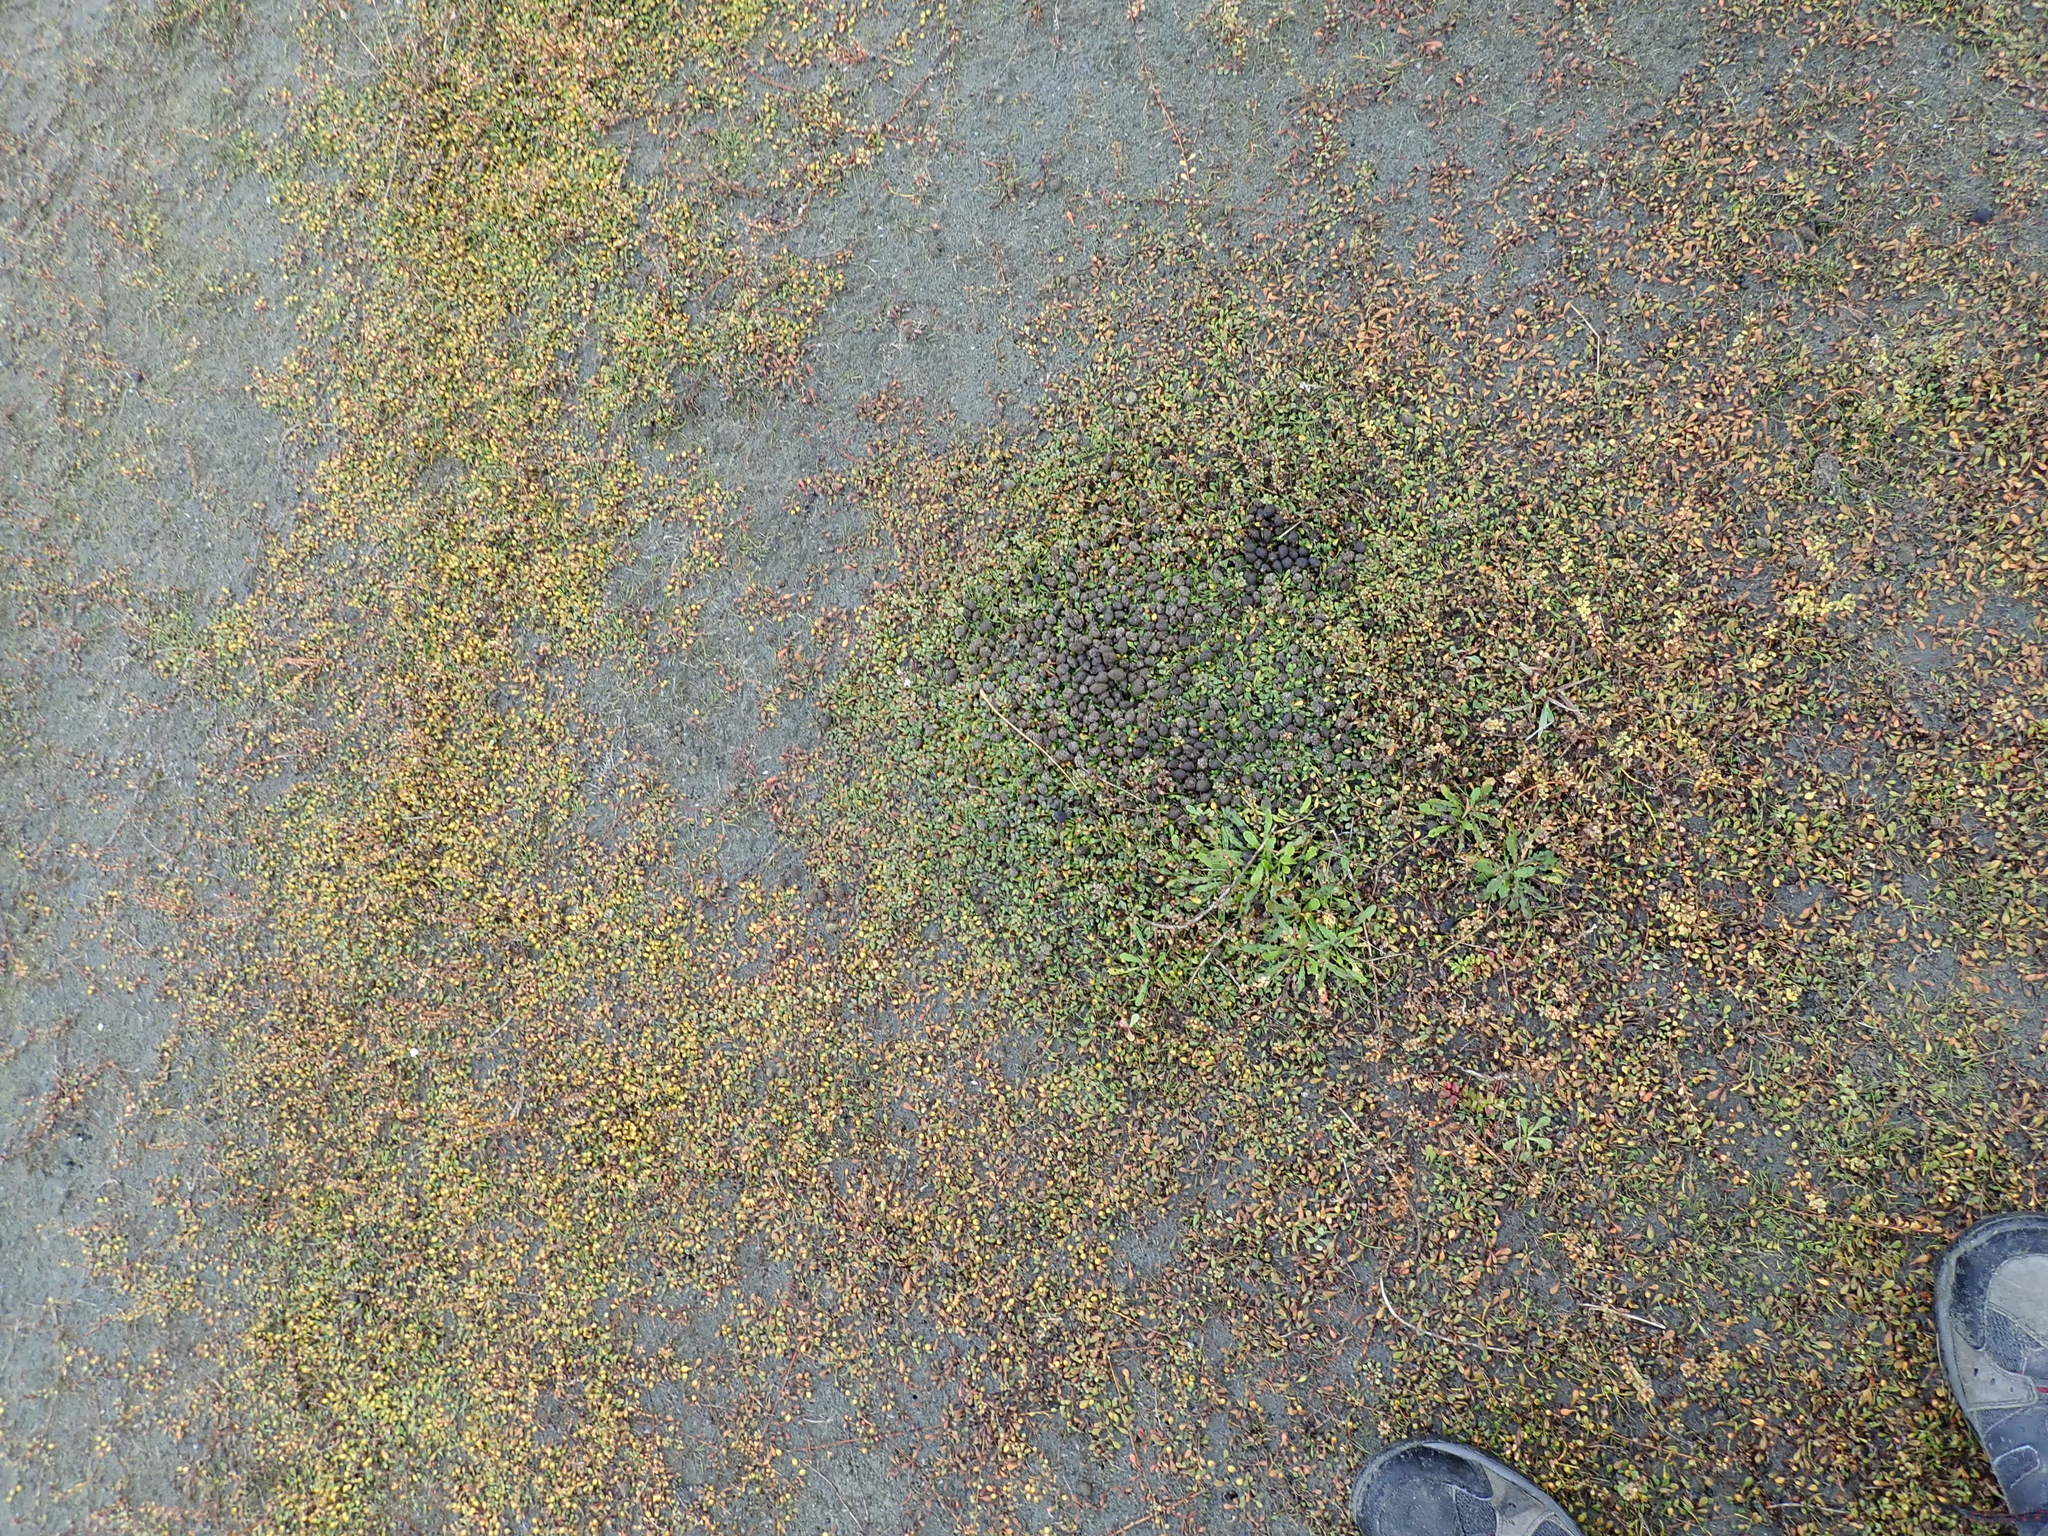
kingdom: Plantae
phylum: Tracheophyta
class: Magnoliopsida
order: Asterales
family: Goodeniaceae
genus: Goodenia
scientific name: Goodenia radicans
